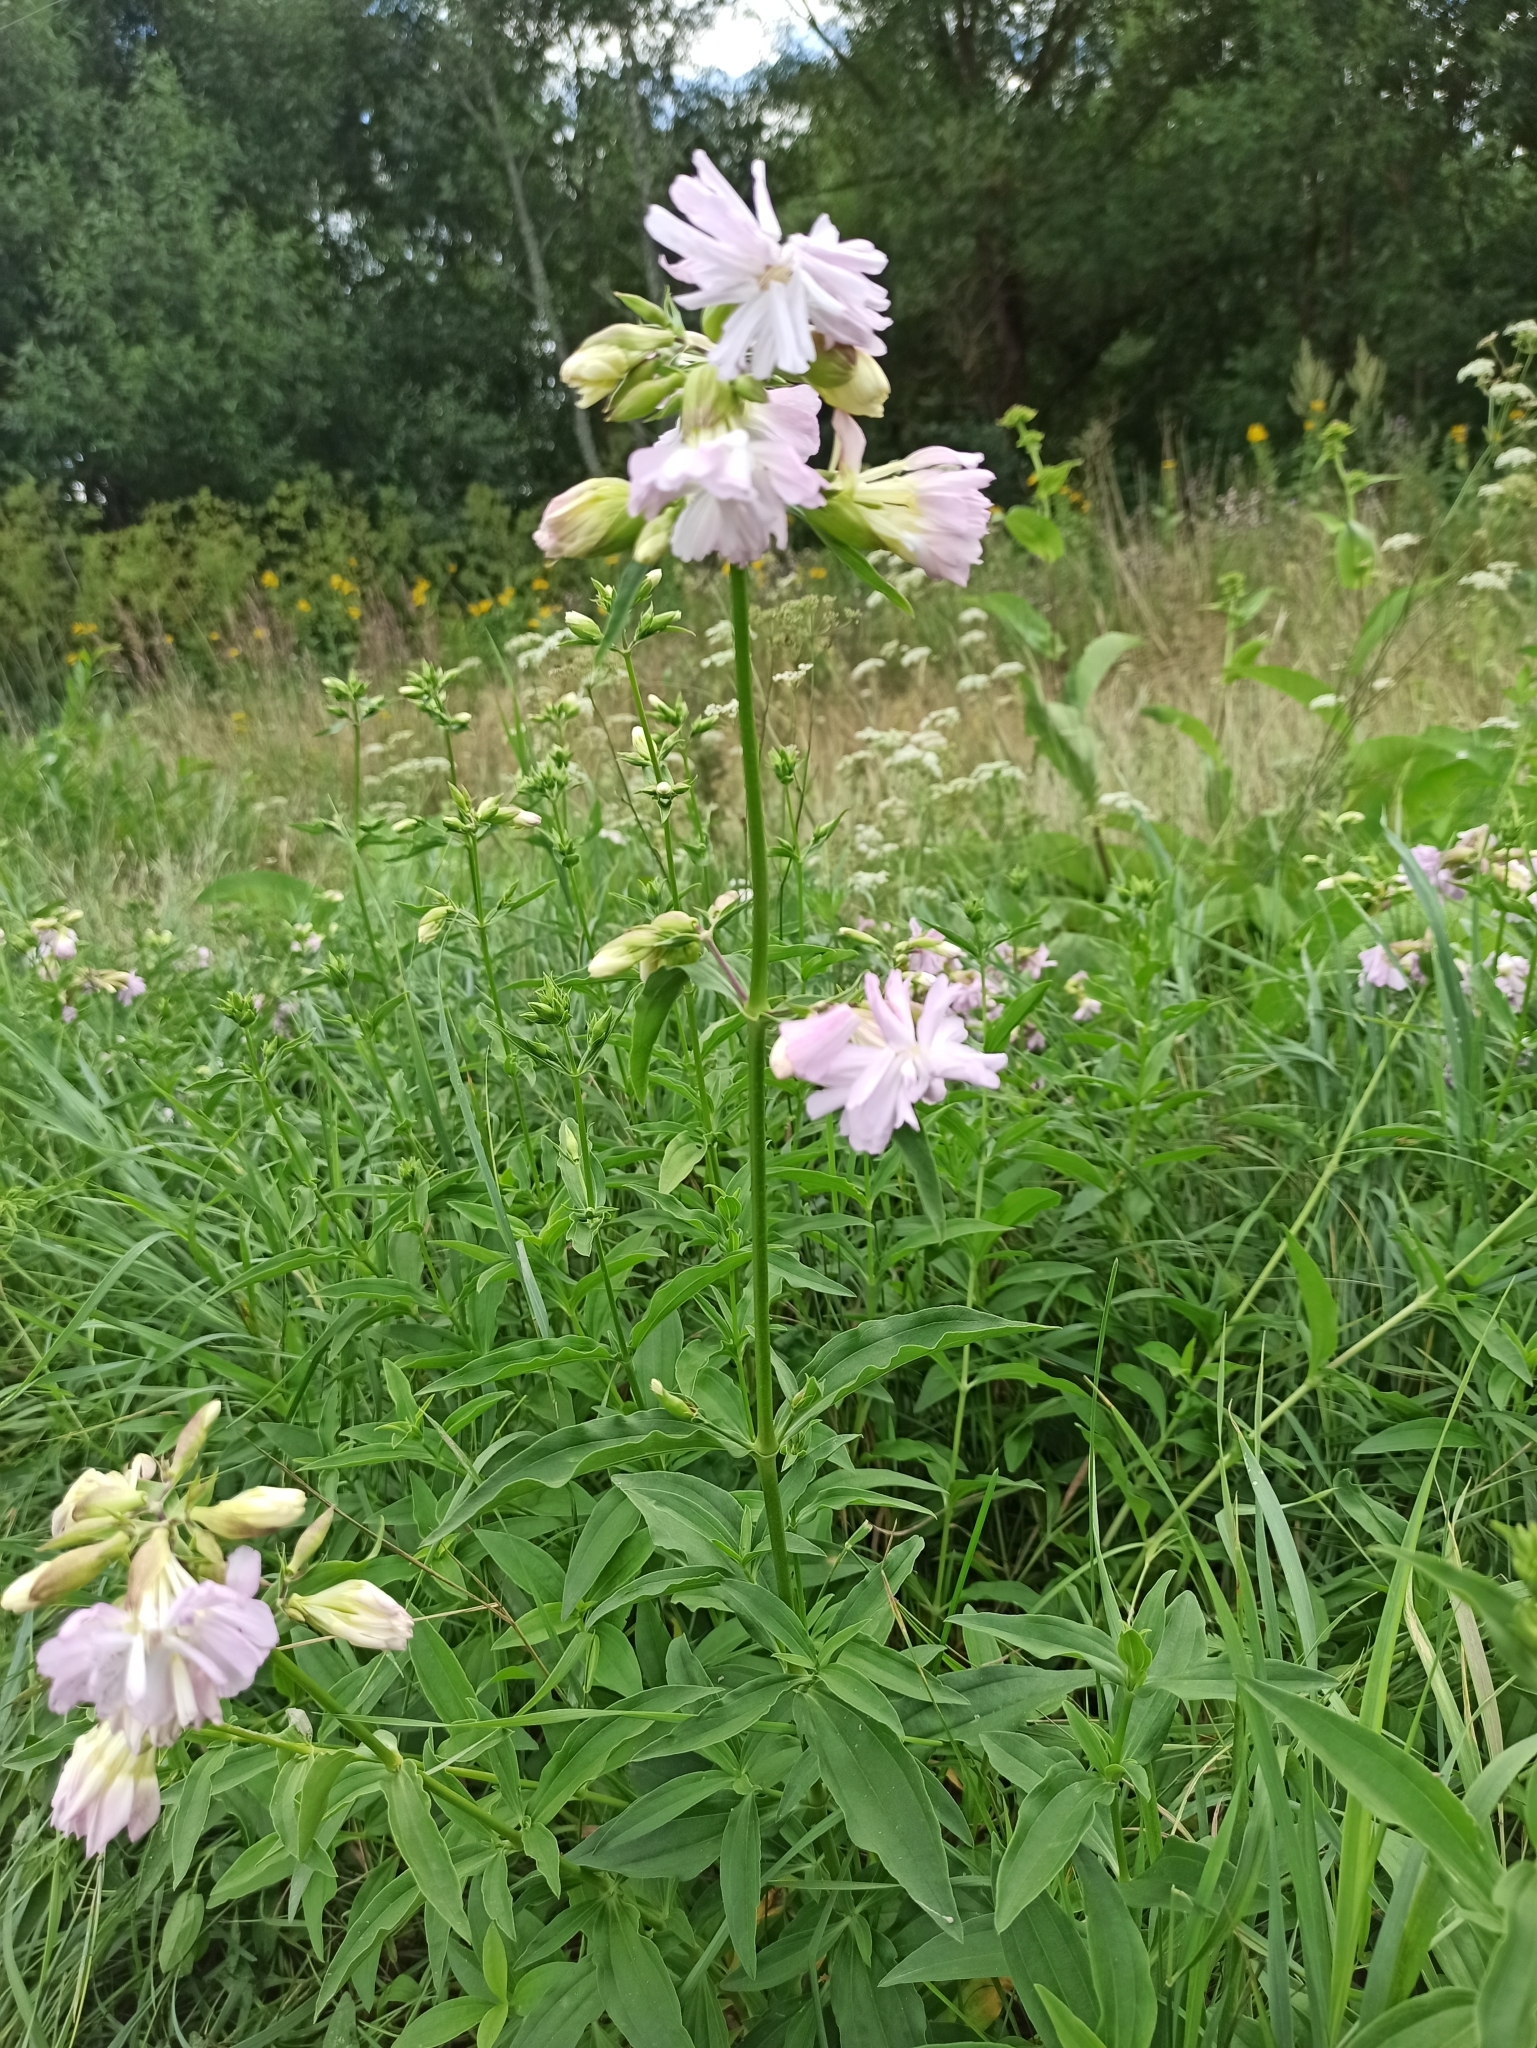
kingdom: Plantae
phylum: Tracheophyta
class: Magnoliopsida
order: Caryophyllales
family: Caryophyllaceae
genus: Saponaria
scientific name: Saponaria officinalis
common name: Soapwort
